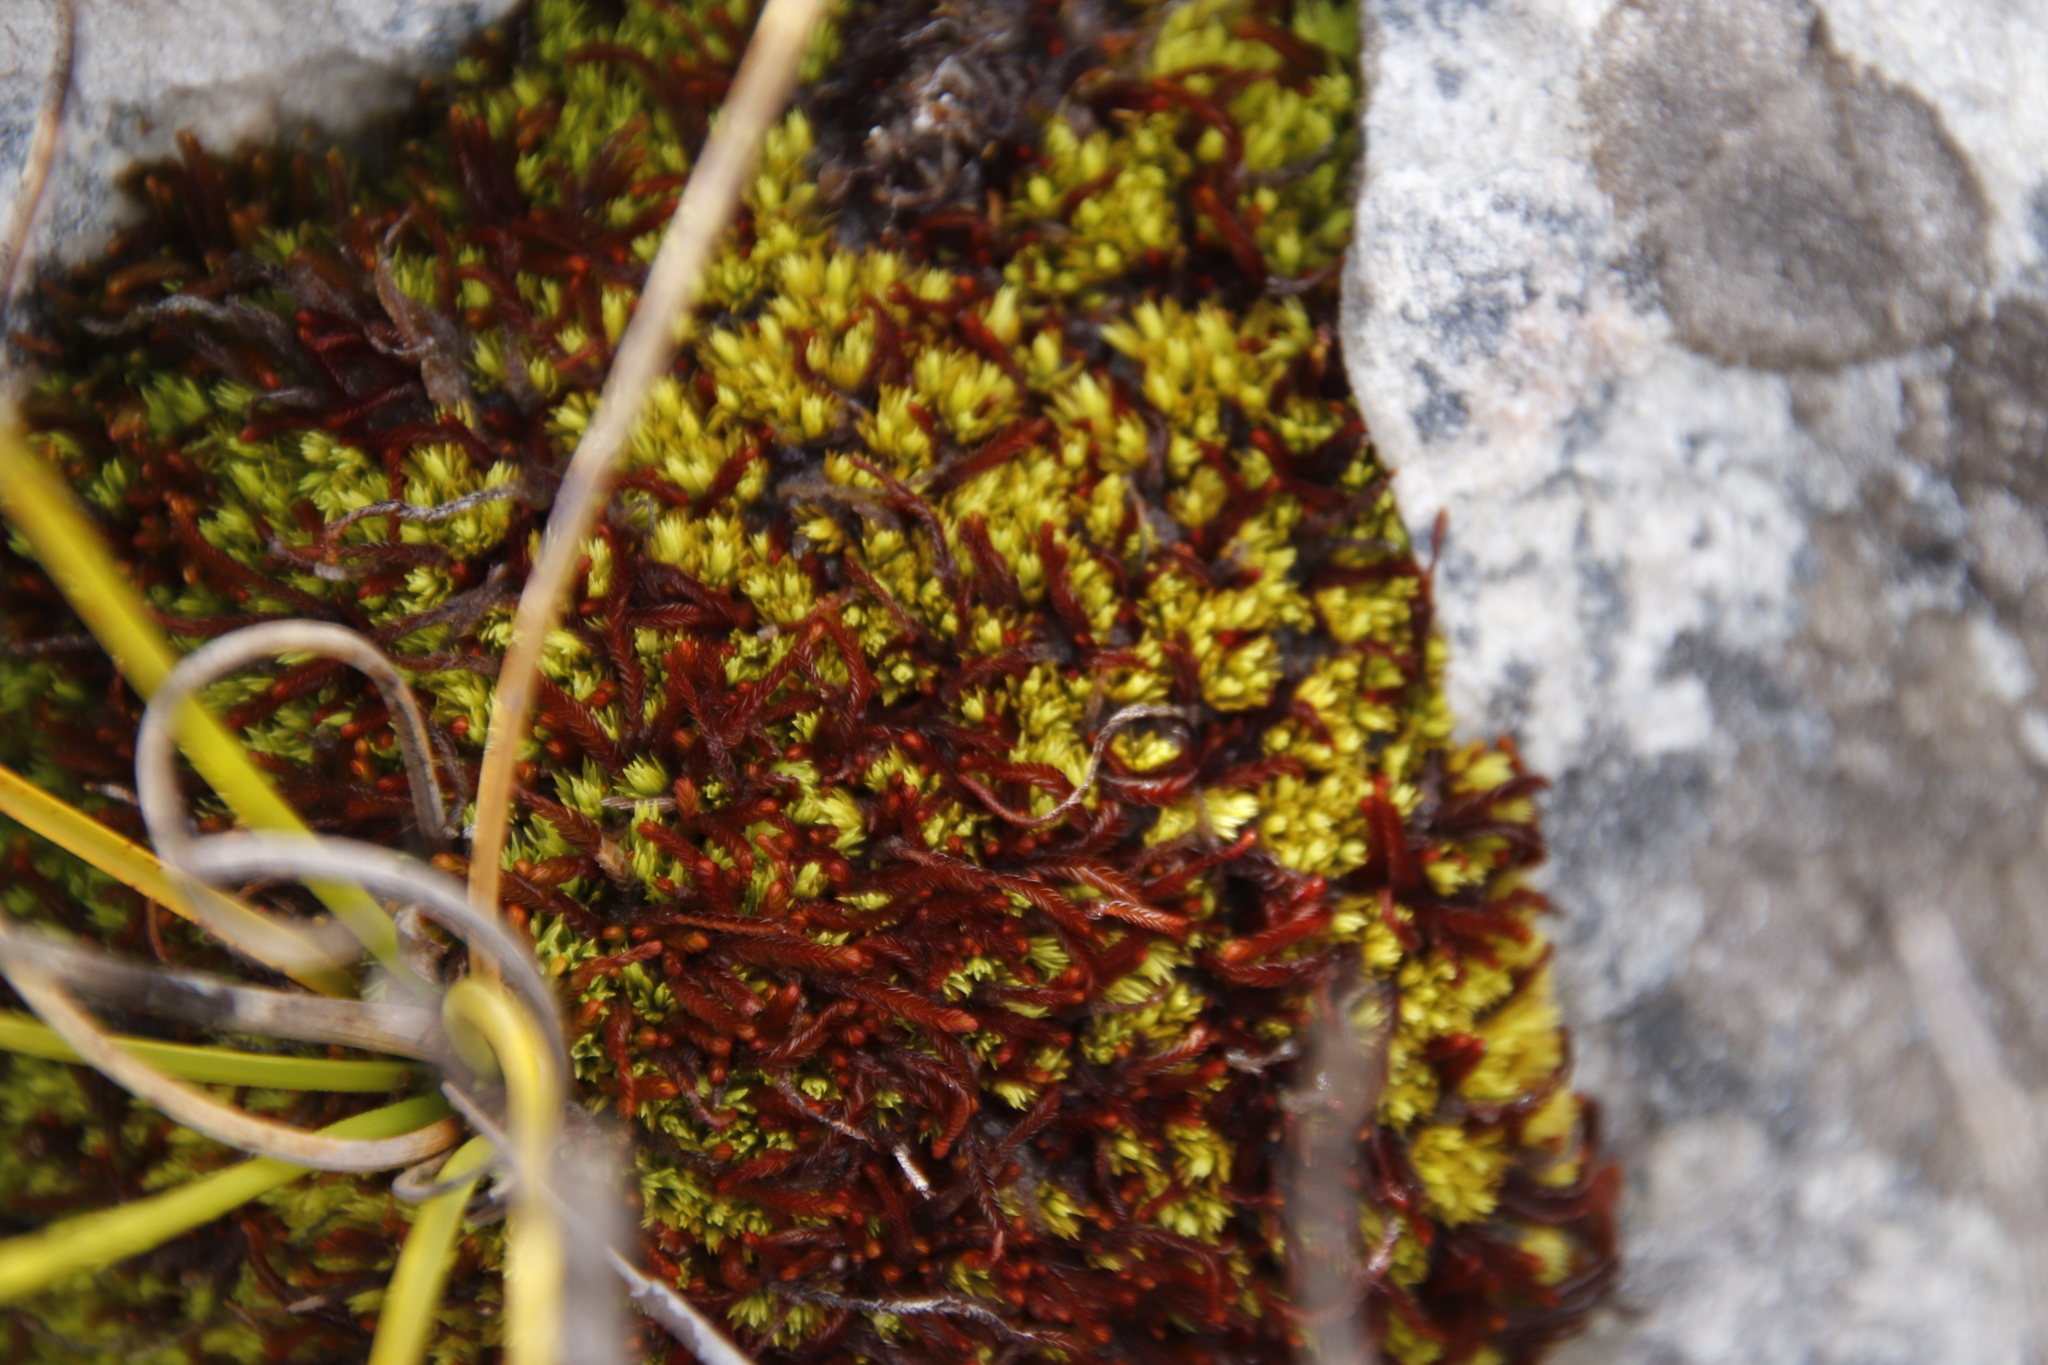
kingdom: Plantae
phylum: Marchantiophyta
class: Jungermanniopsida
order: Jungermanniales
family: Adelanthaceae
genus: Syzygiella
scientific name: Syzygiella colorata
